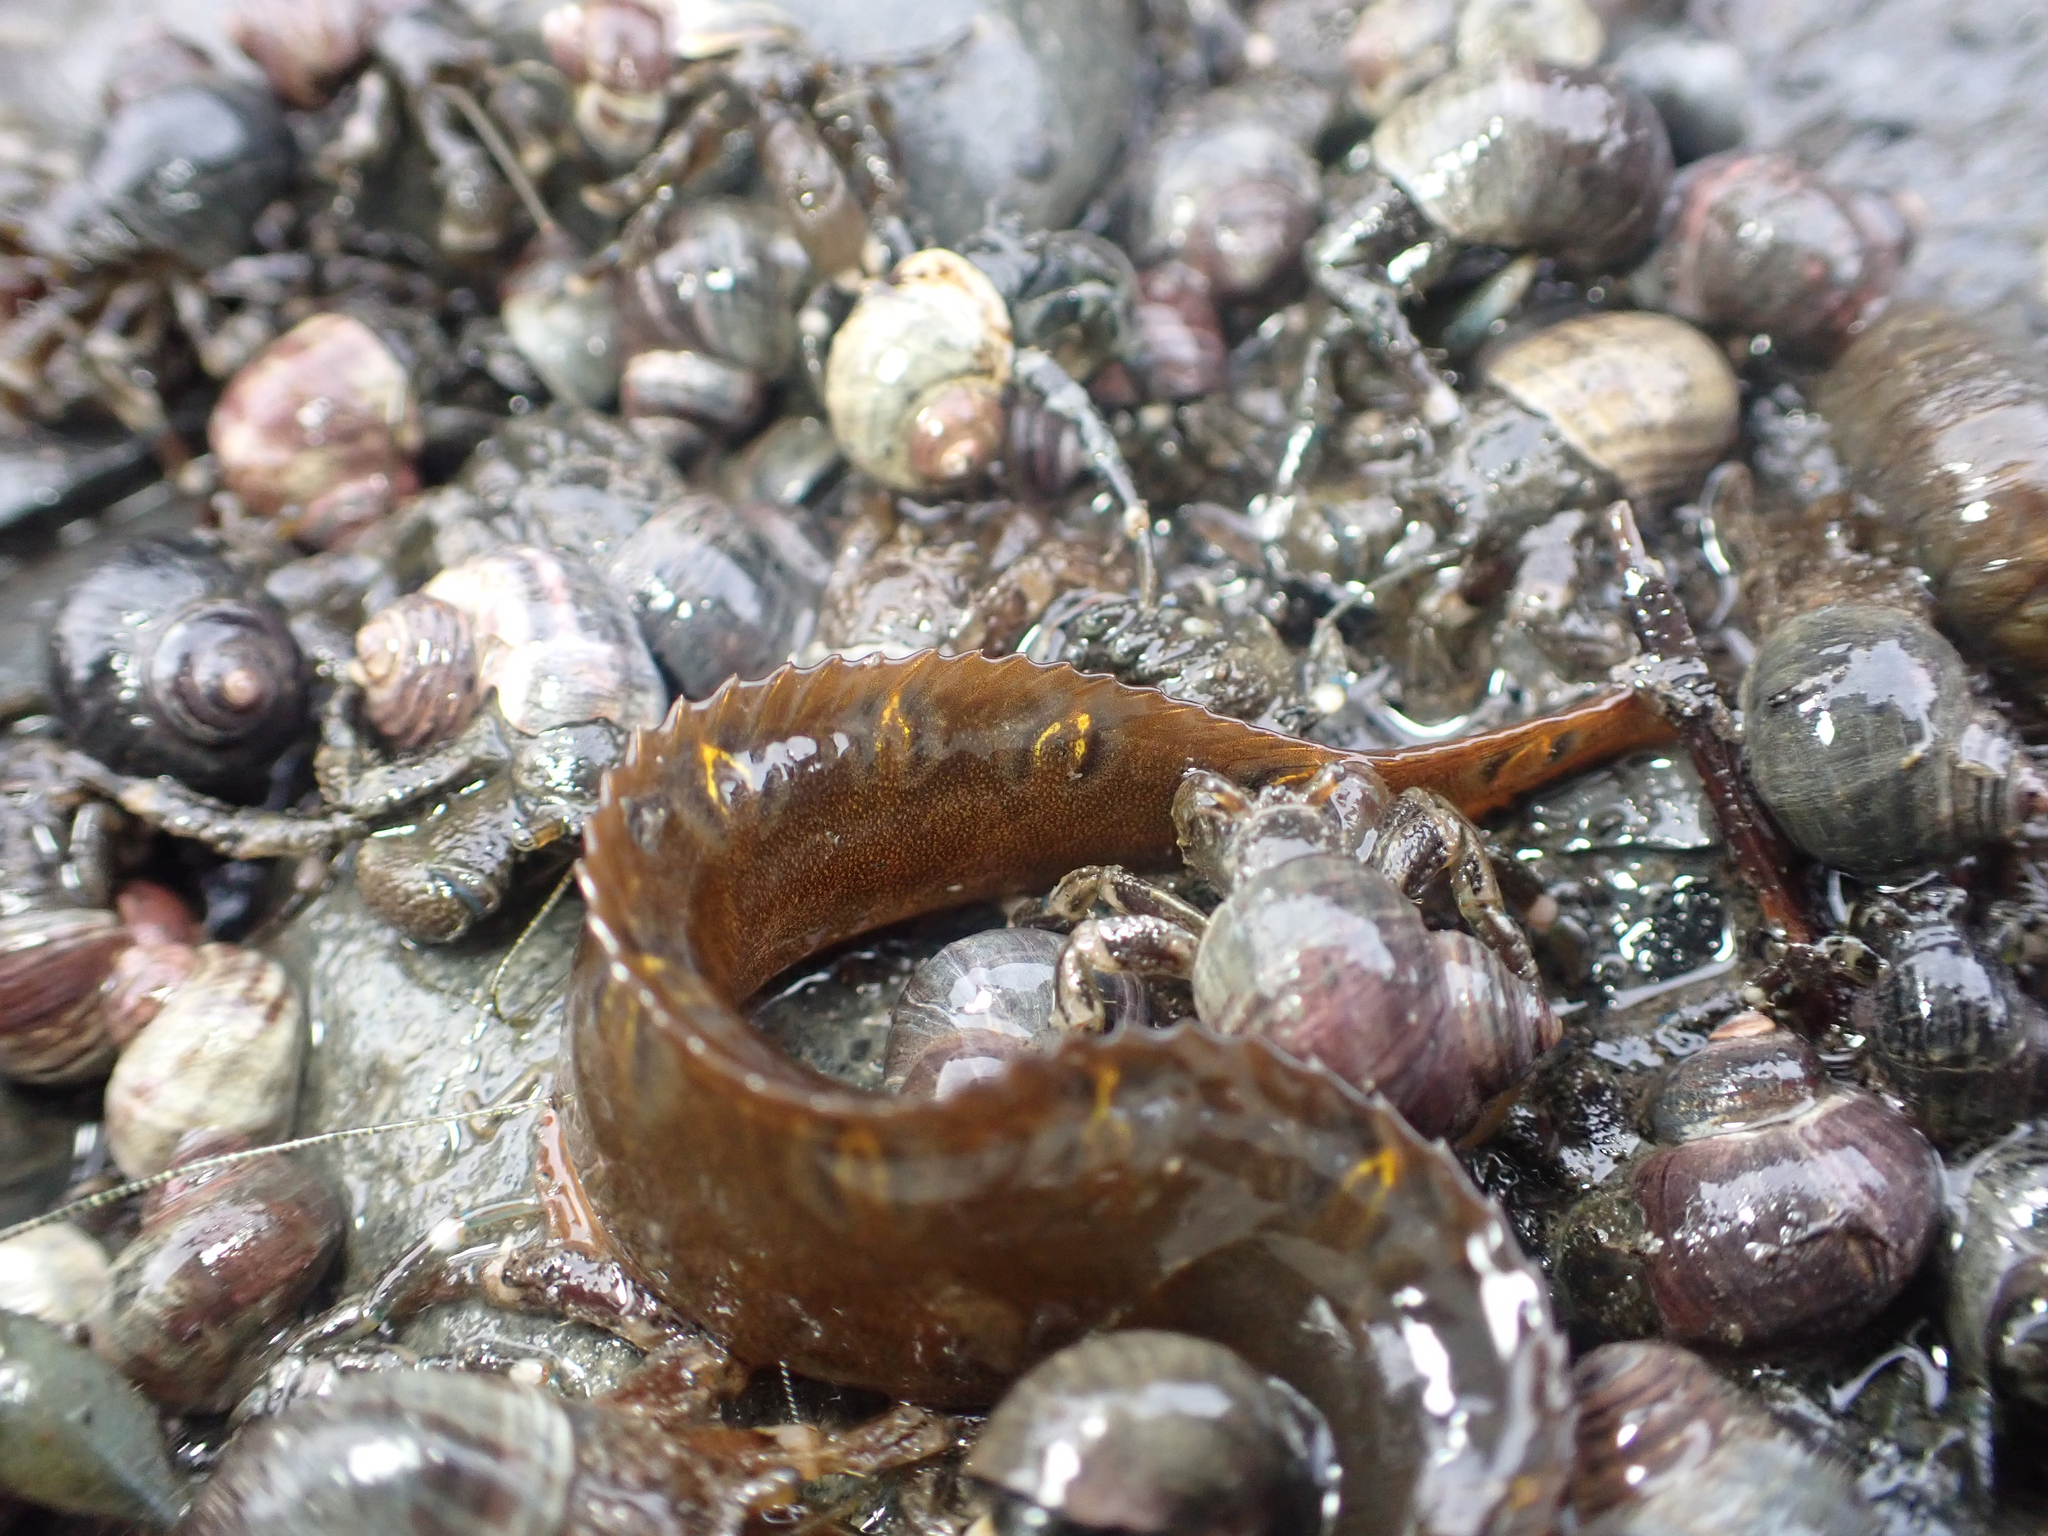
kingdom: Animalia
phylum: Chordata
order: Perciformes
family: Pholidae
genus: Pholis
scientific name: Pholis laeta
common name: Crescent gunnel
